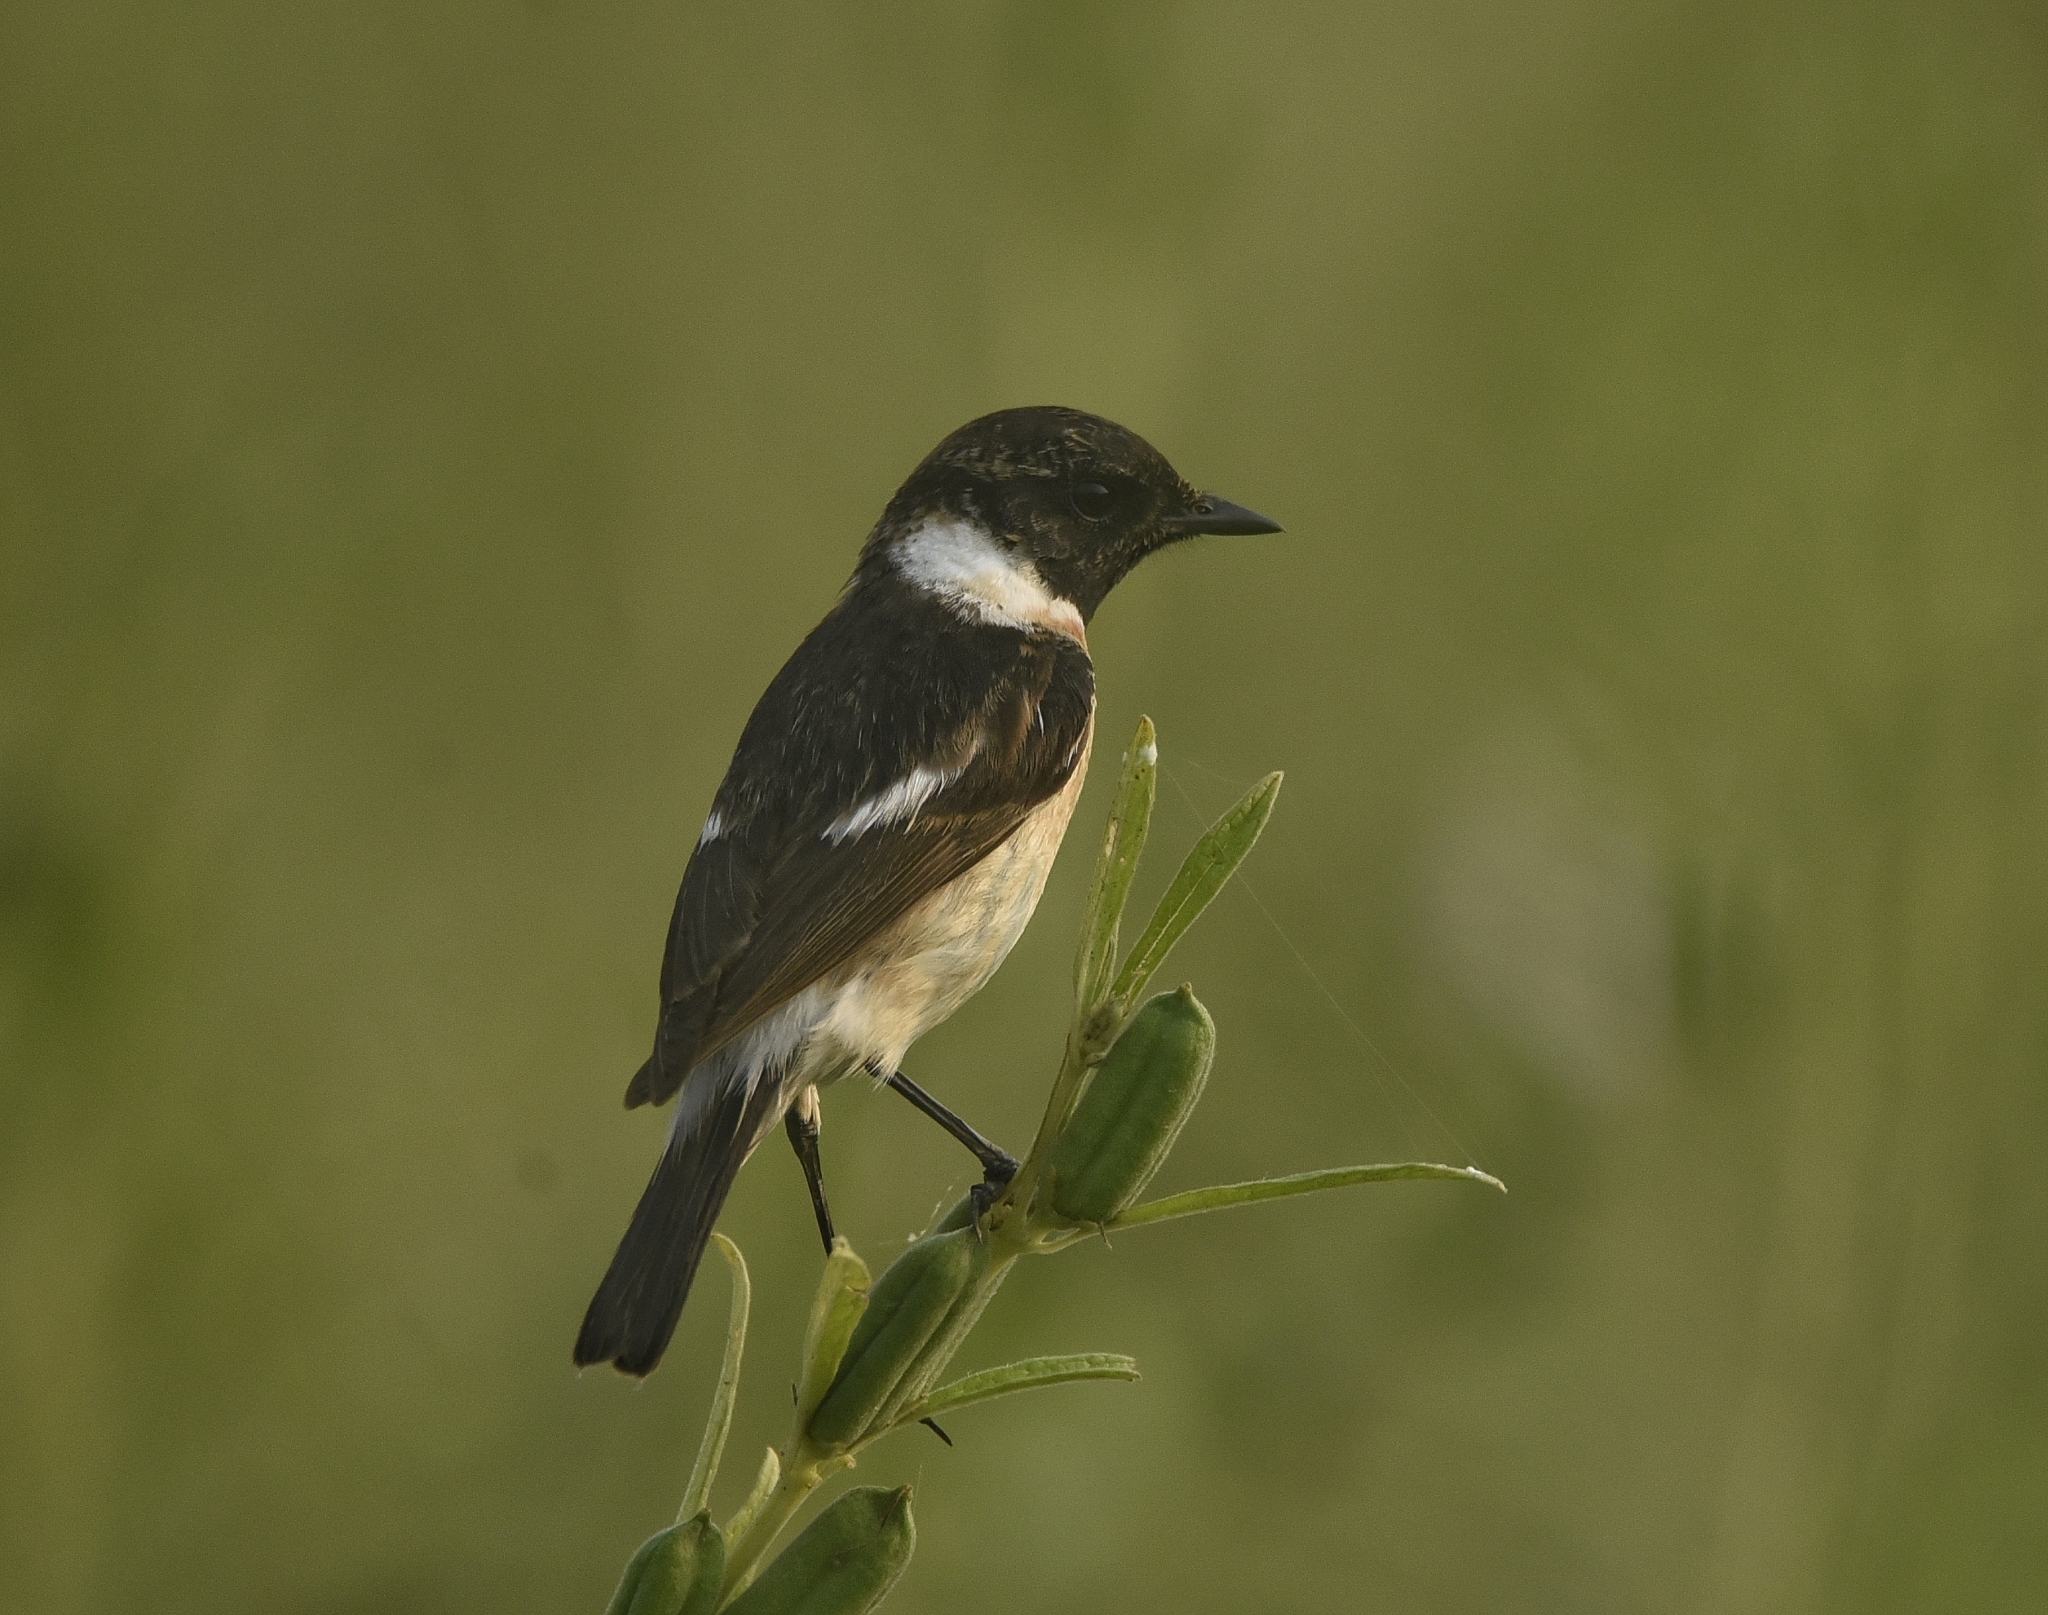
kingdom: Animalia
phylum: Chordata
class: Aves
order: Passeriformes
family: Muscicapidae
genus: Saxicola
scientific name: Saxicola maurus
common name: Siberian stonechat
